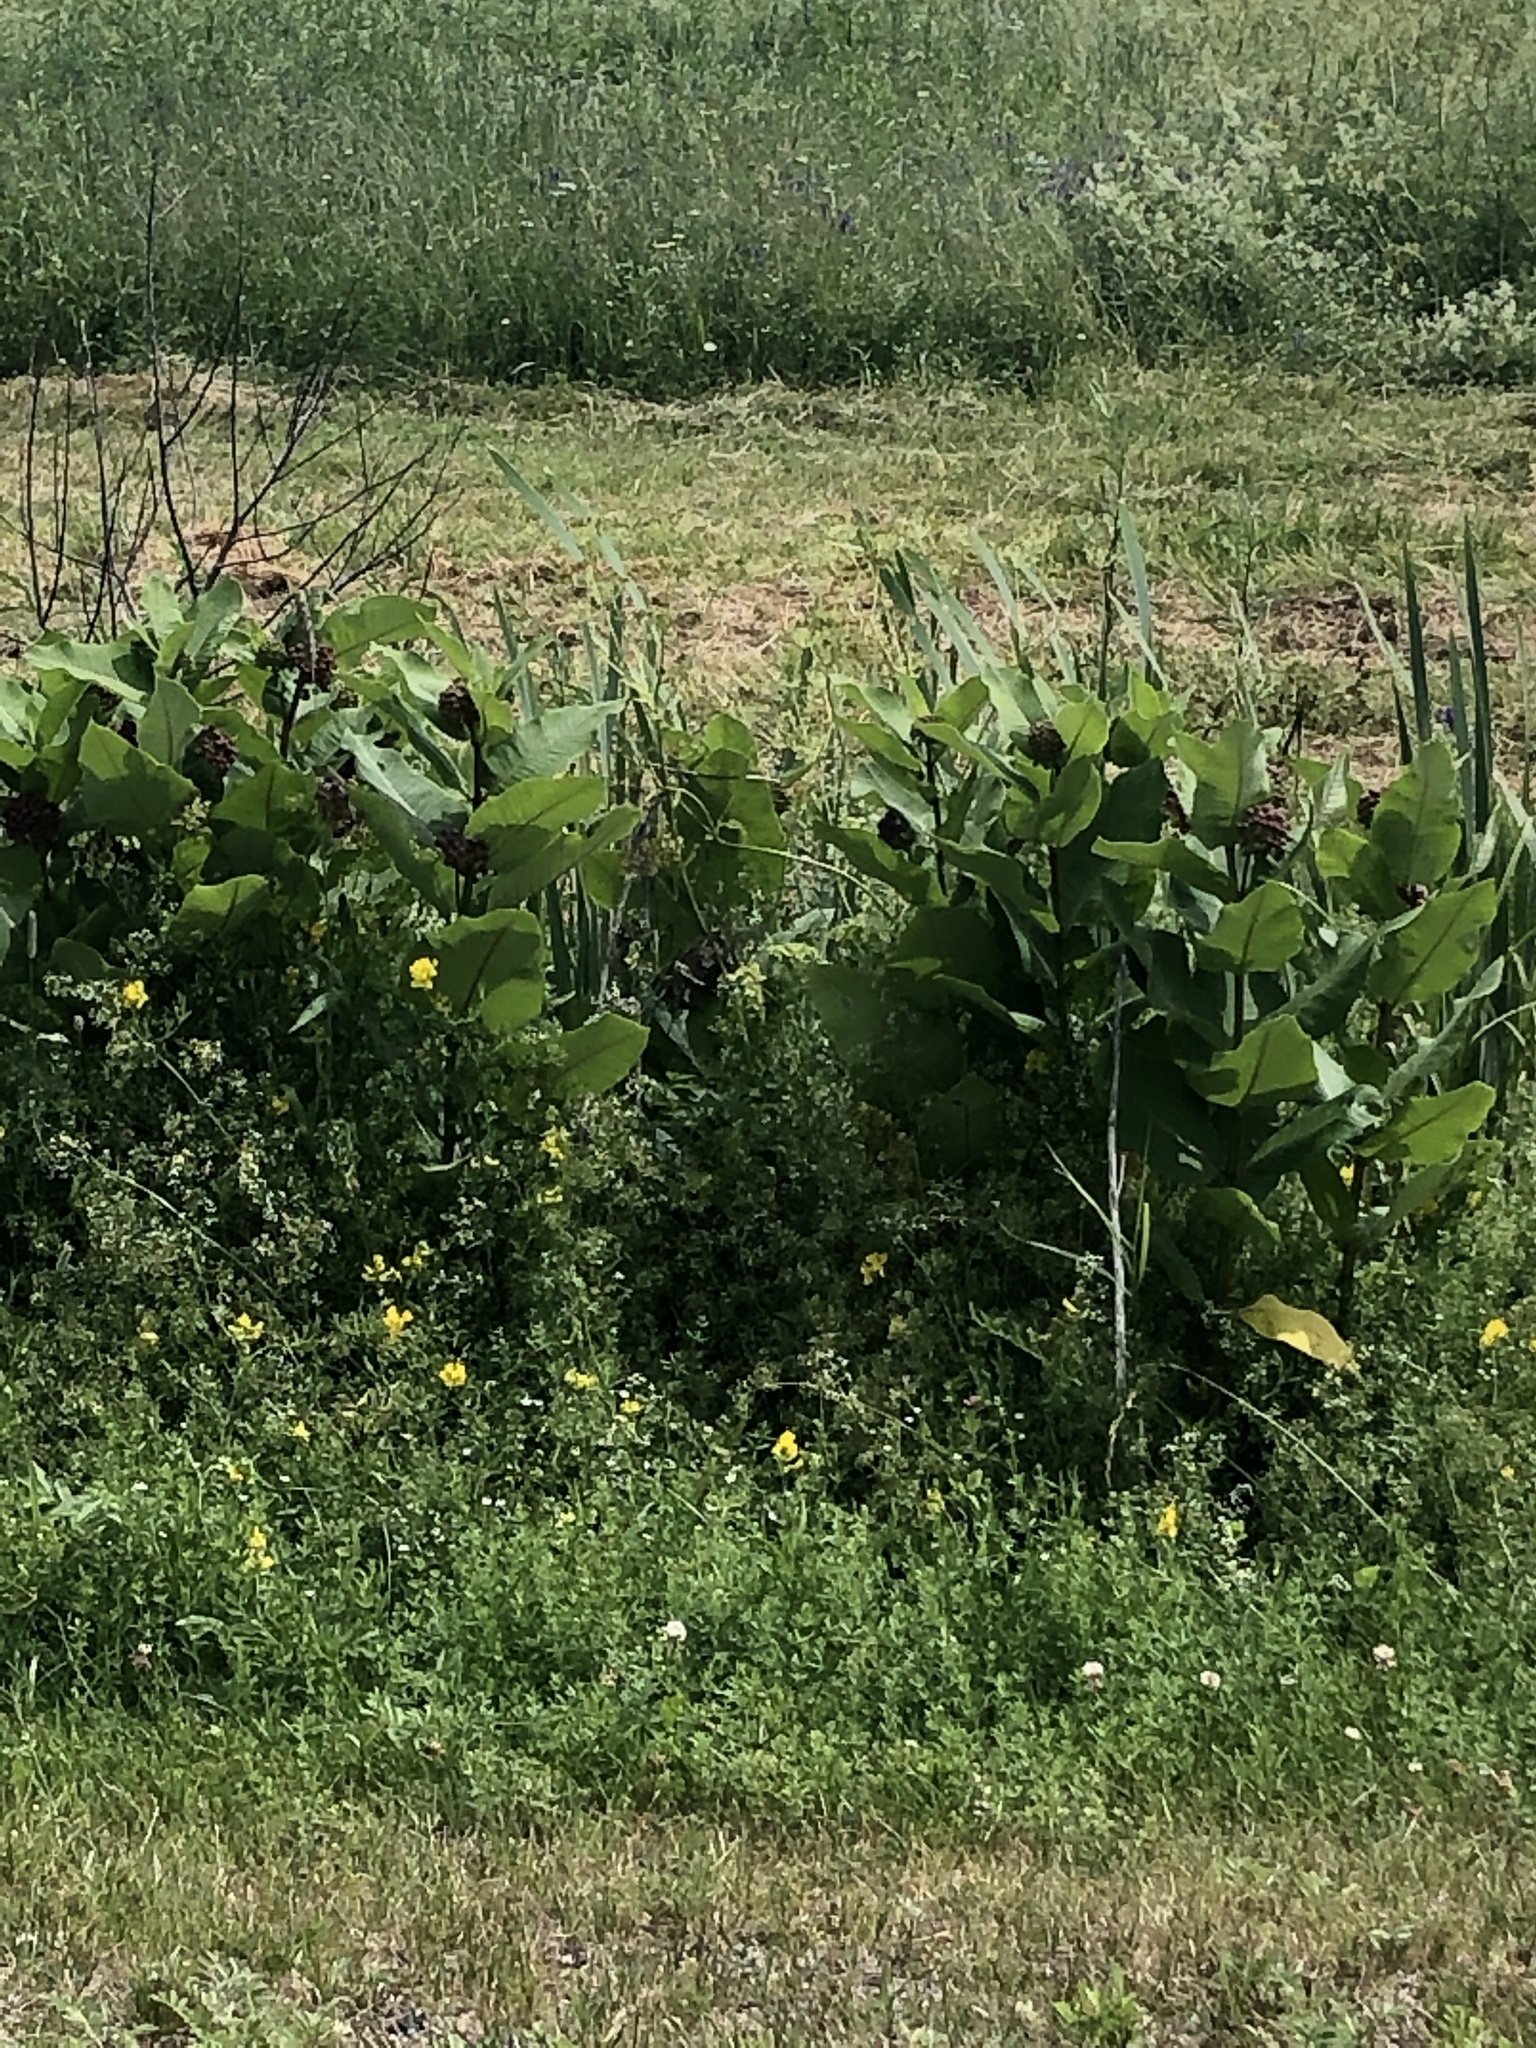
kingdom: Plantae
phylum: Tracheophyta
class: Magnoliopsida
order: Gentianales
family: Apocynaceae
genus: Asclepias
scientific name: Asclepias syriaca
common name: Common milkweed
